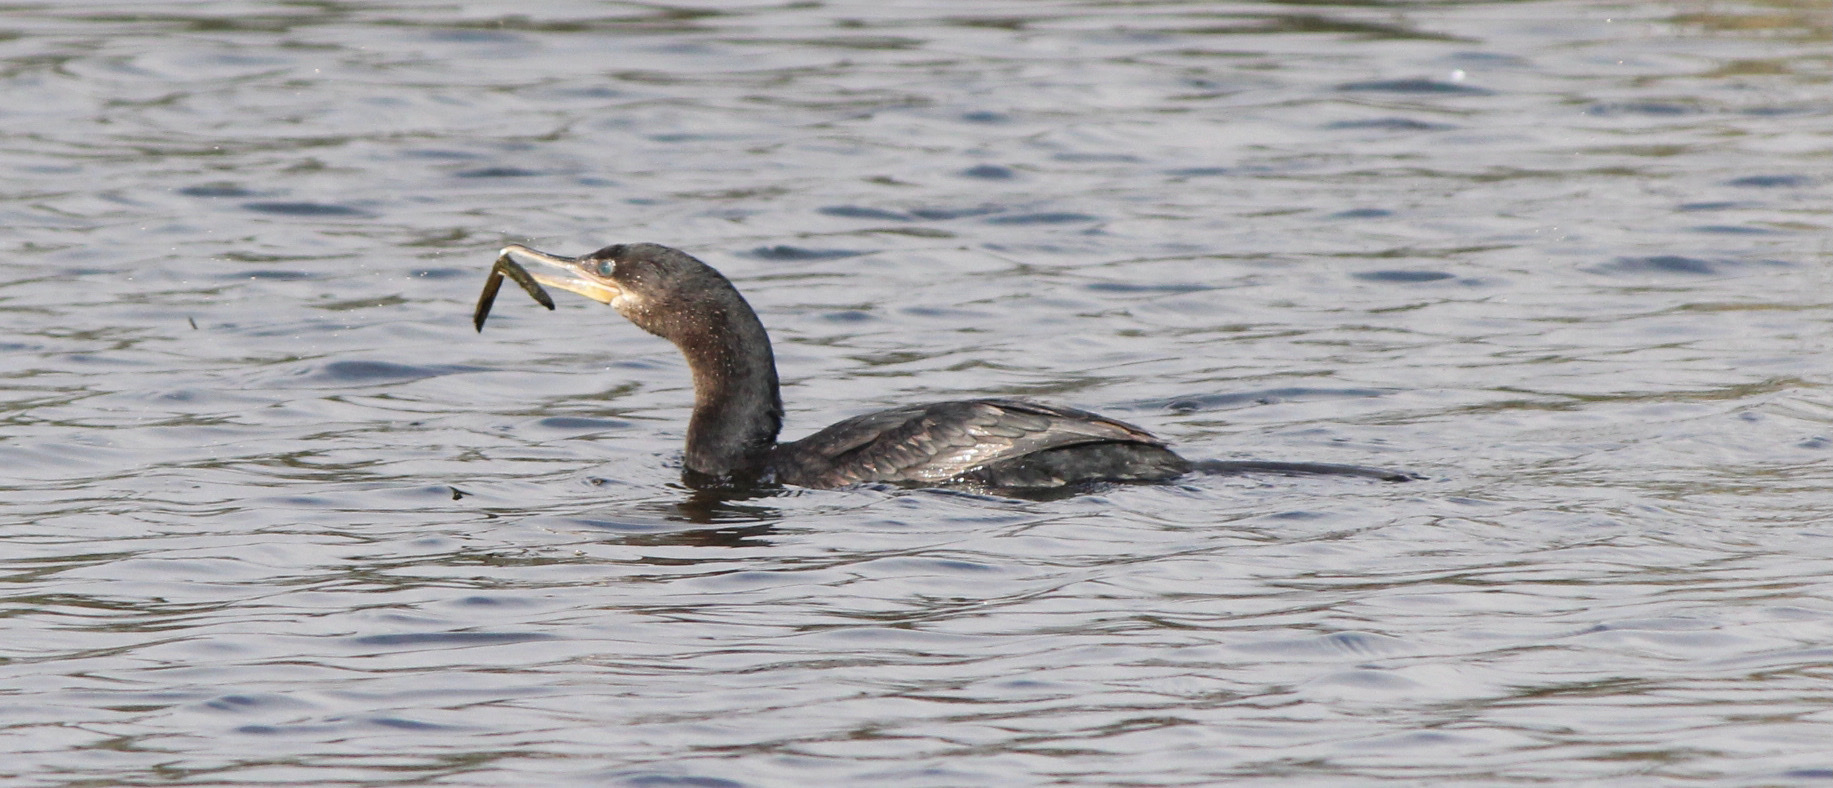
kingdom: Animalia
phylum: Chordata
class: Aves
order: Suliformes
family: Phalacrocoracidae
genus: Phalacrocorax
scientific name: Phalacrocorax brasilianus
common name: Neotropic cormorant
